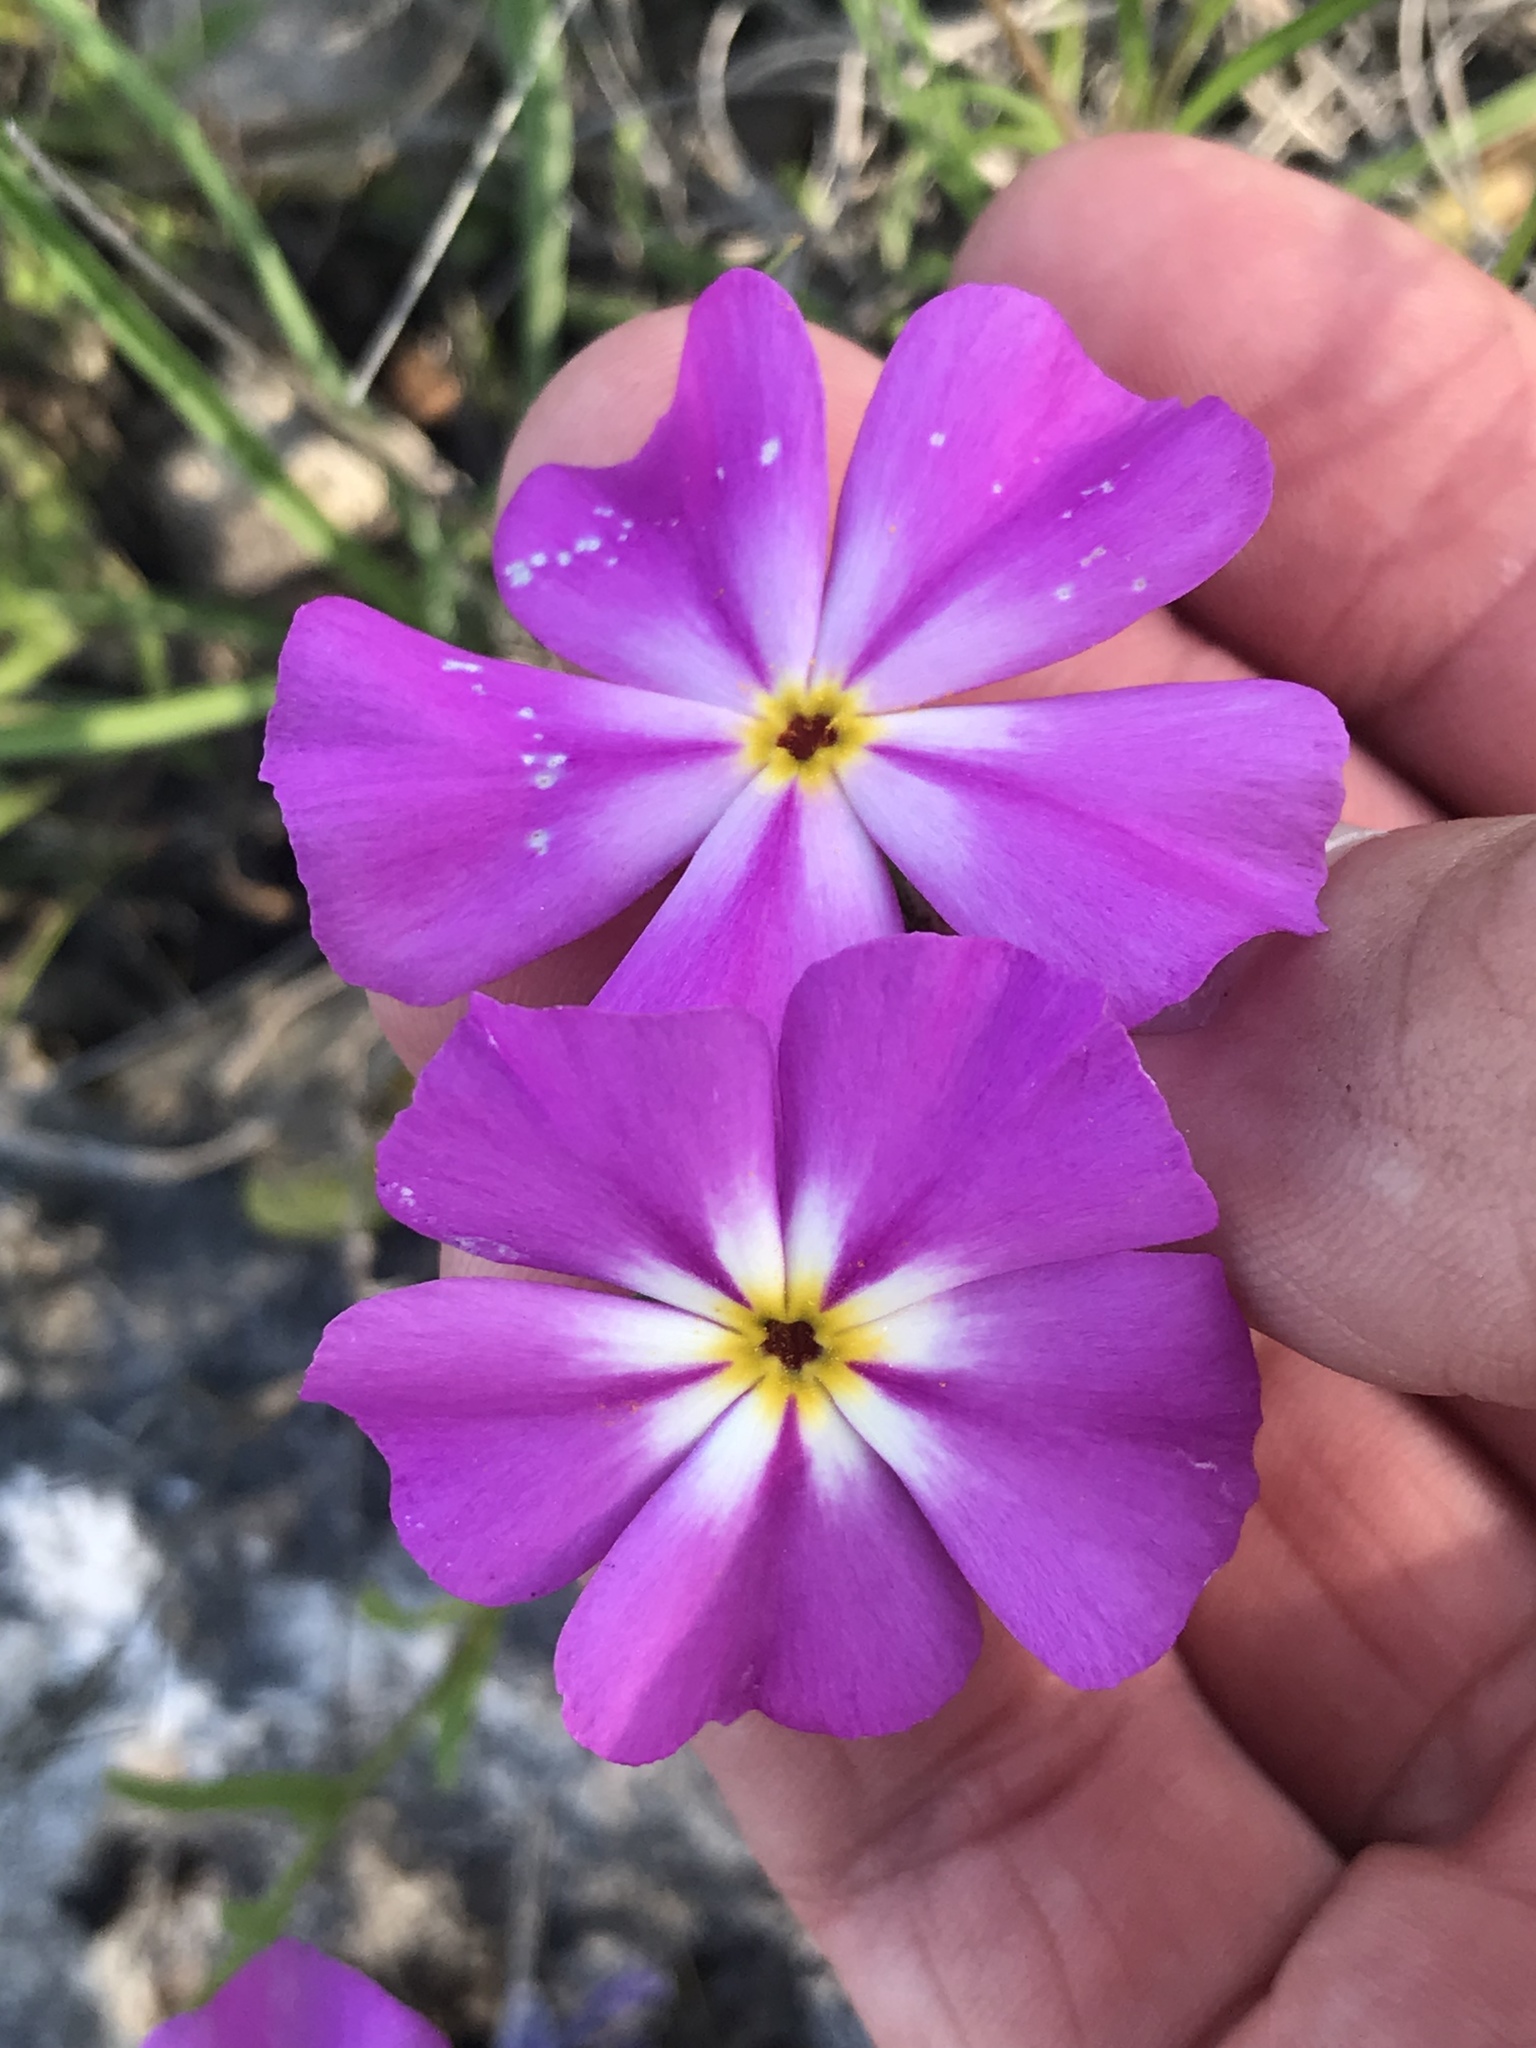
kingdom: Plantae
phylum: Tracheophyta
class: Magnoliopsida
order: Ericales
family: Polemoniaceae
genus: Phlox
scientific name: Phlox roemeriana
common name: Roemer's phlox
